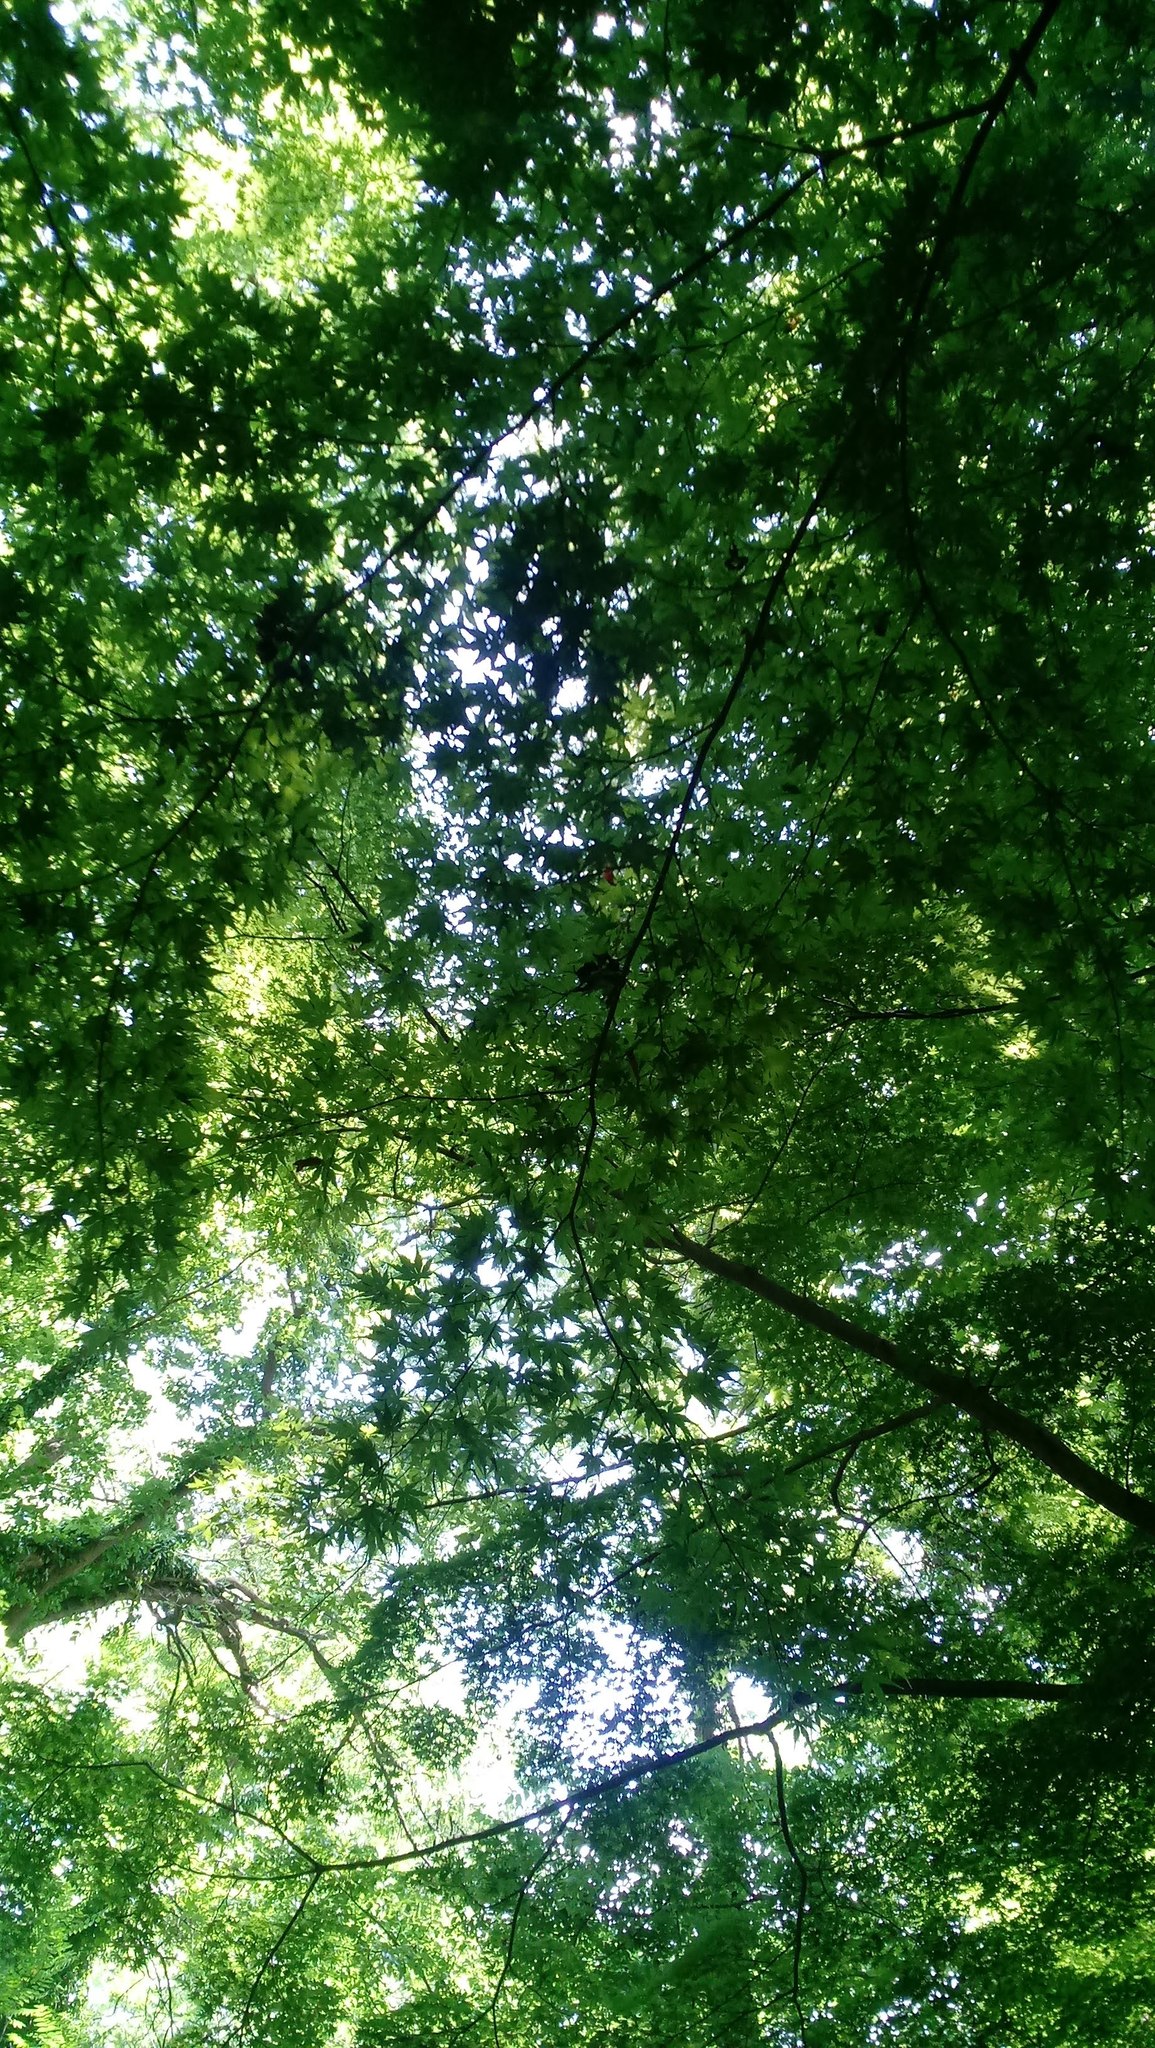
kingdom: Plantae
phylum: Tracheophyta
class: Magnoliopsida
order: Sapindales
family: Sapindaceae
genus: Acer
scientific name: Acer palmatum
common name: Japanese maple
